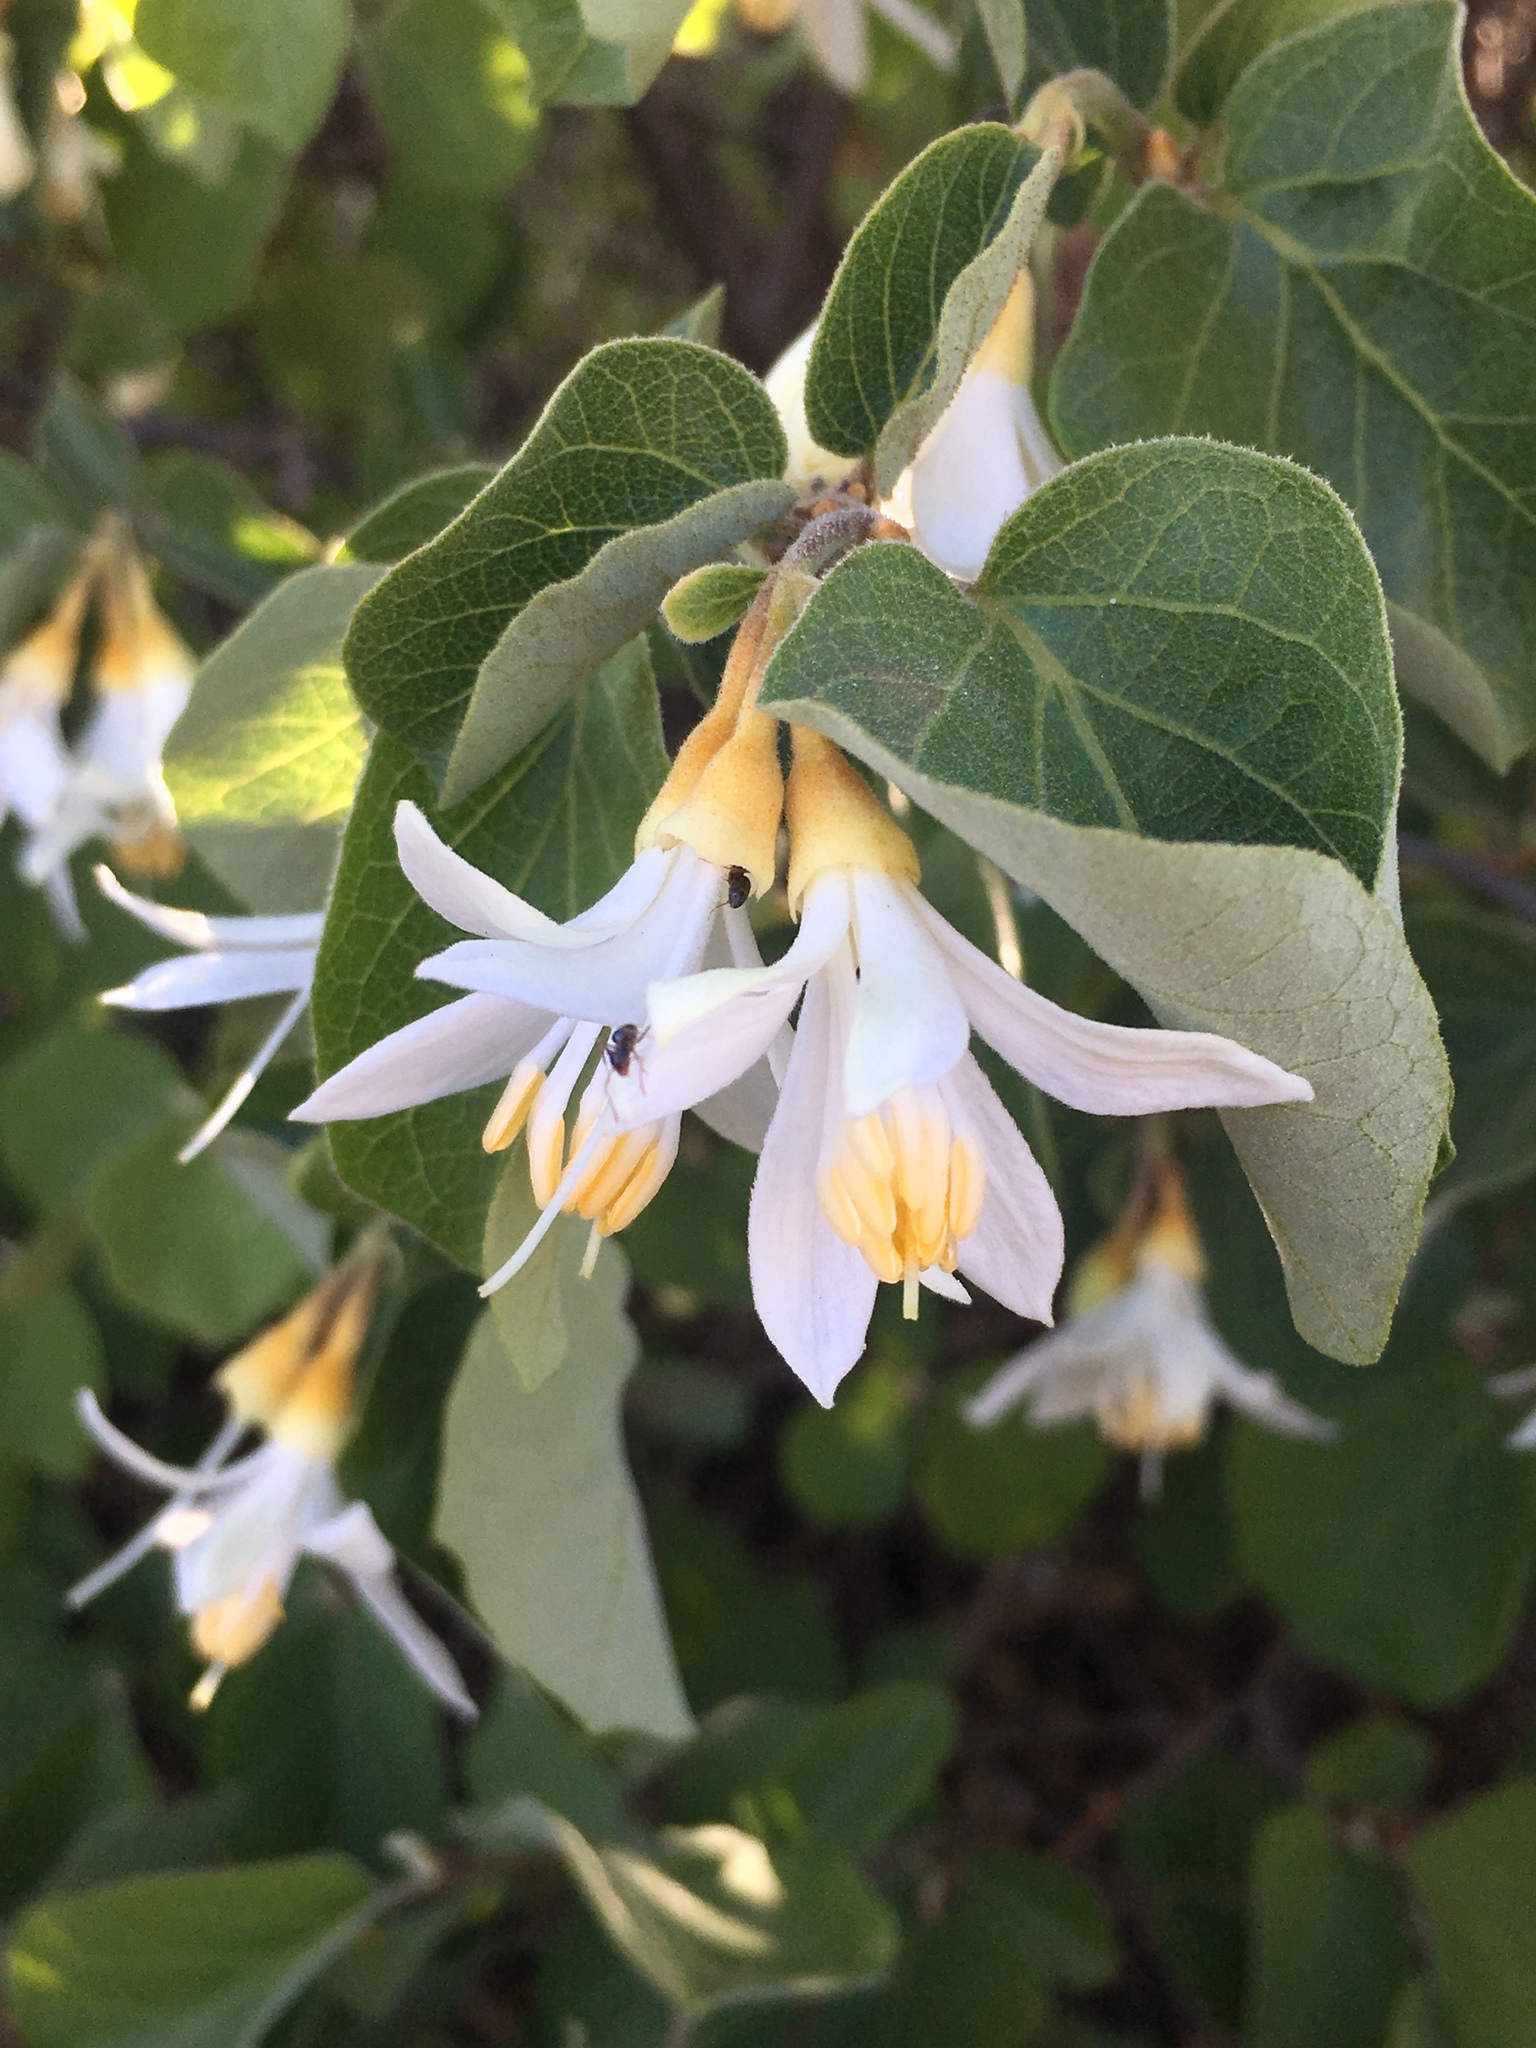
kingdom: Plantae
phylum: Tracheophyta
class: Magnoliopsida
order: Ericales
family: Styracaceae
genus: Styrax
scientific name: Styrax redivivus
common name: California styrax
